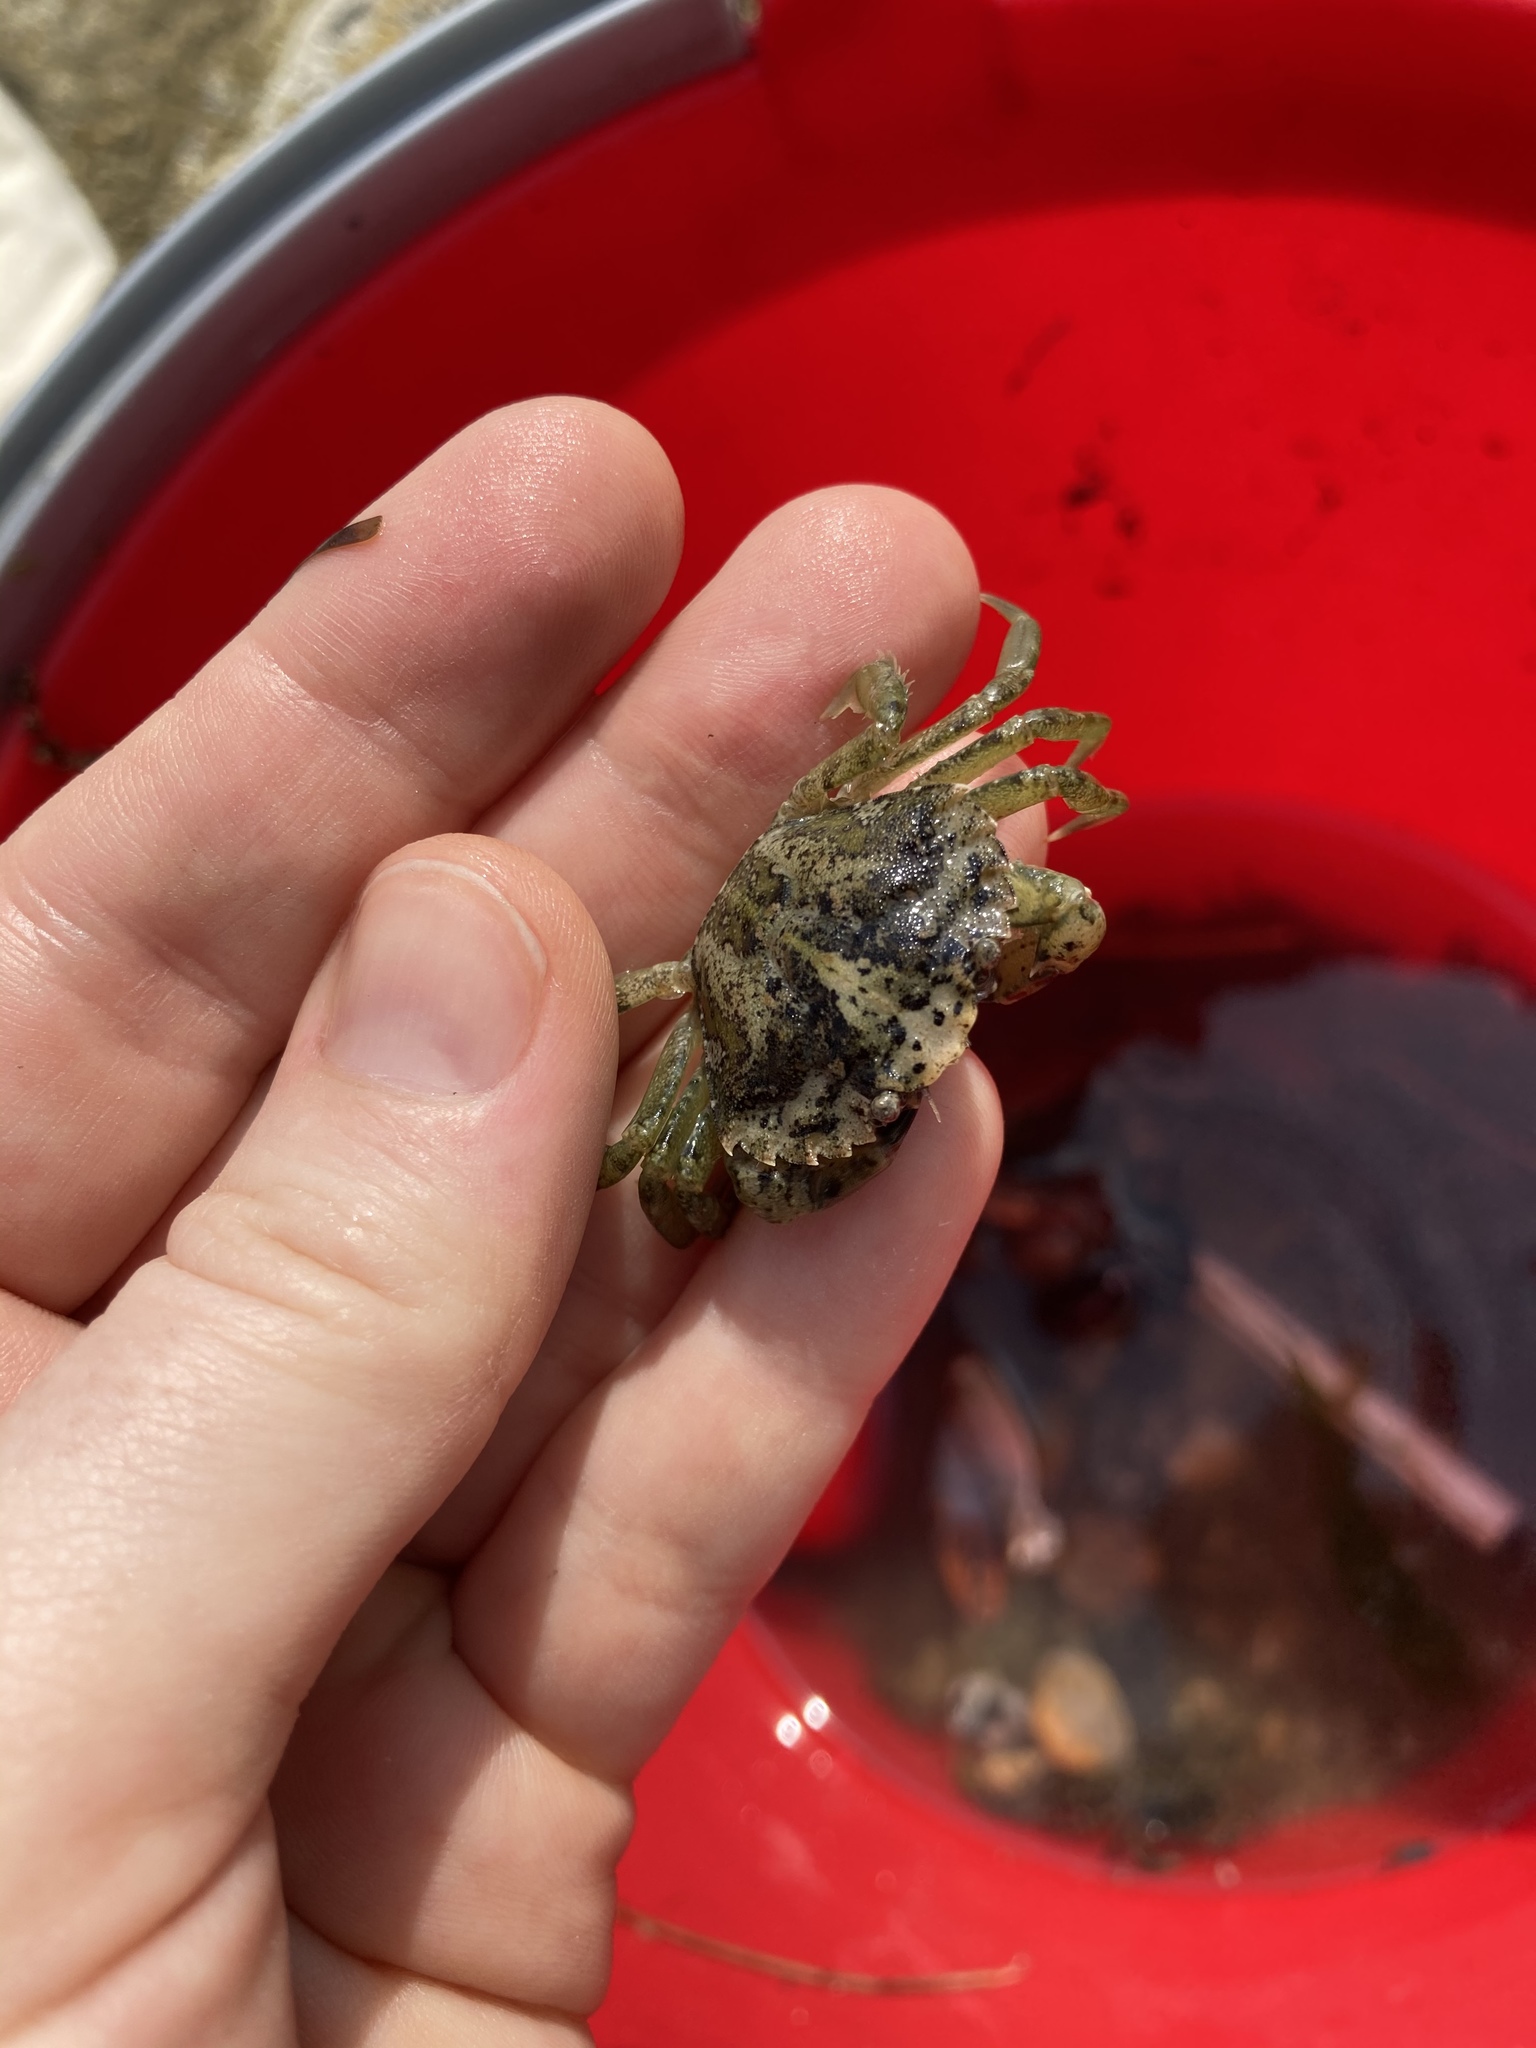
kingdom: Animalia
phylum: Arthropoda
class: Malacostraca
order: Decapoda
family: Carcinidae
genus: Carcinus
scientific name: Carcinus maenas
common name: European green crab
